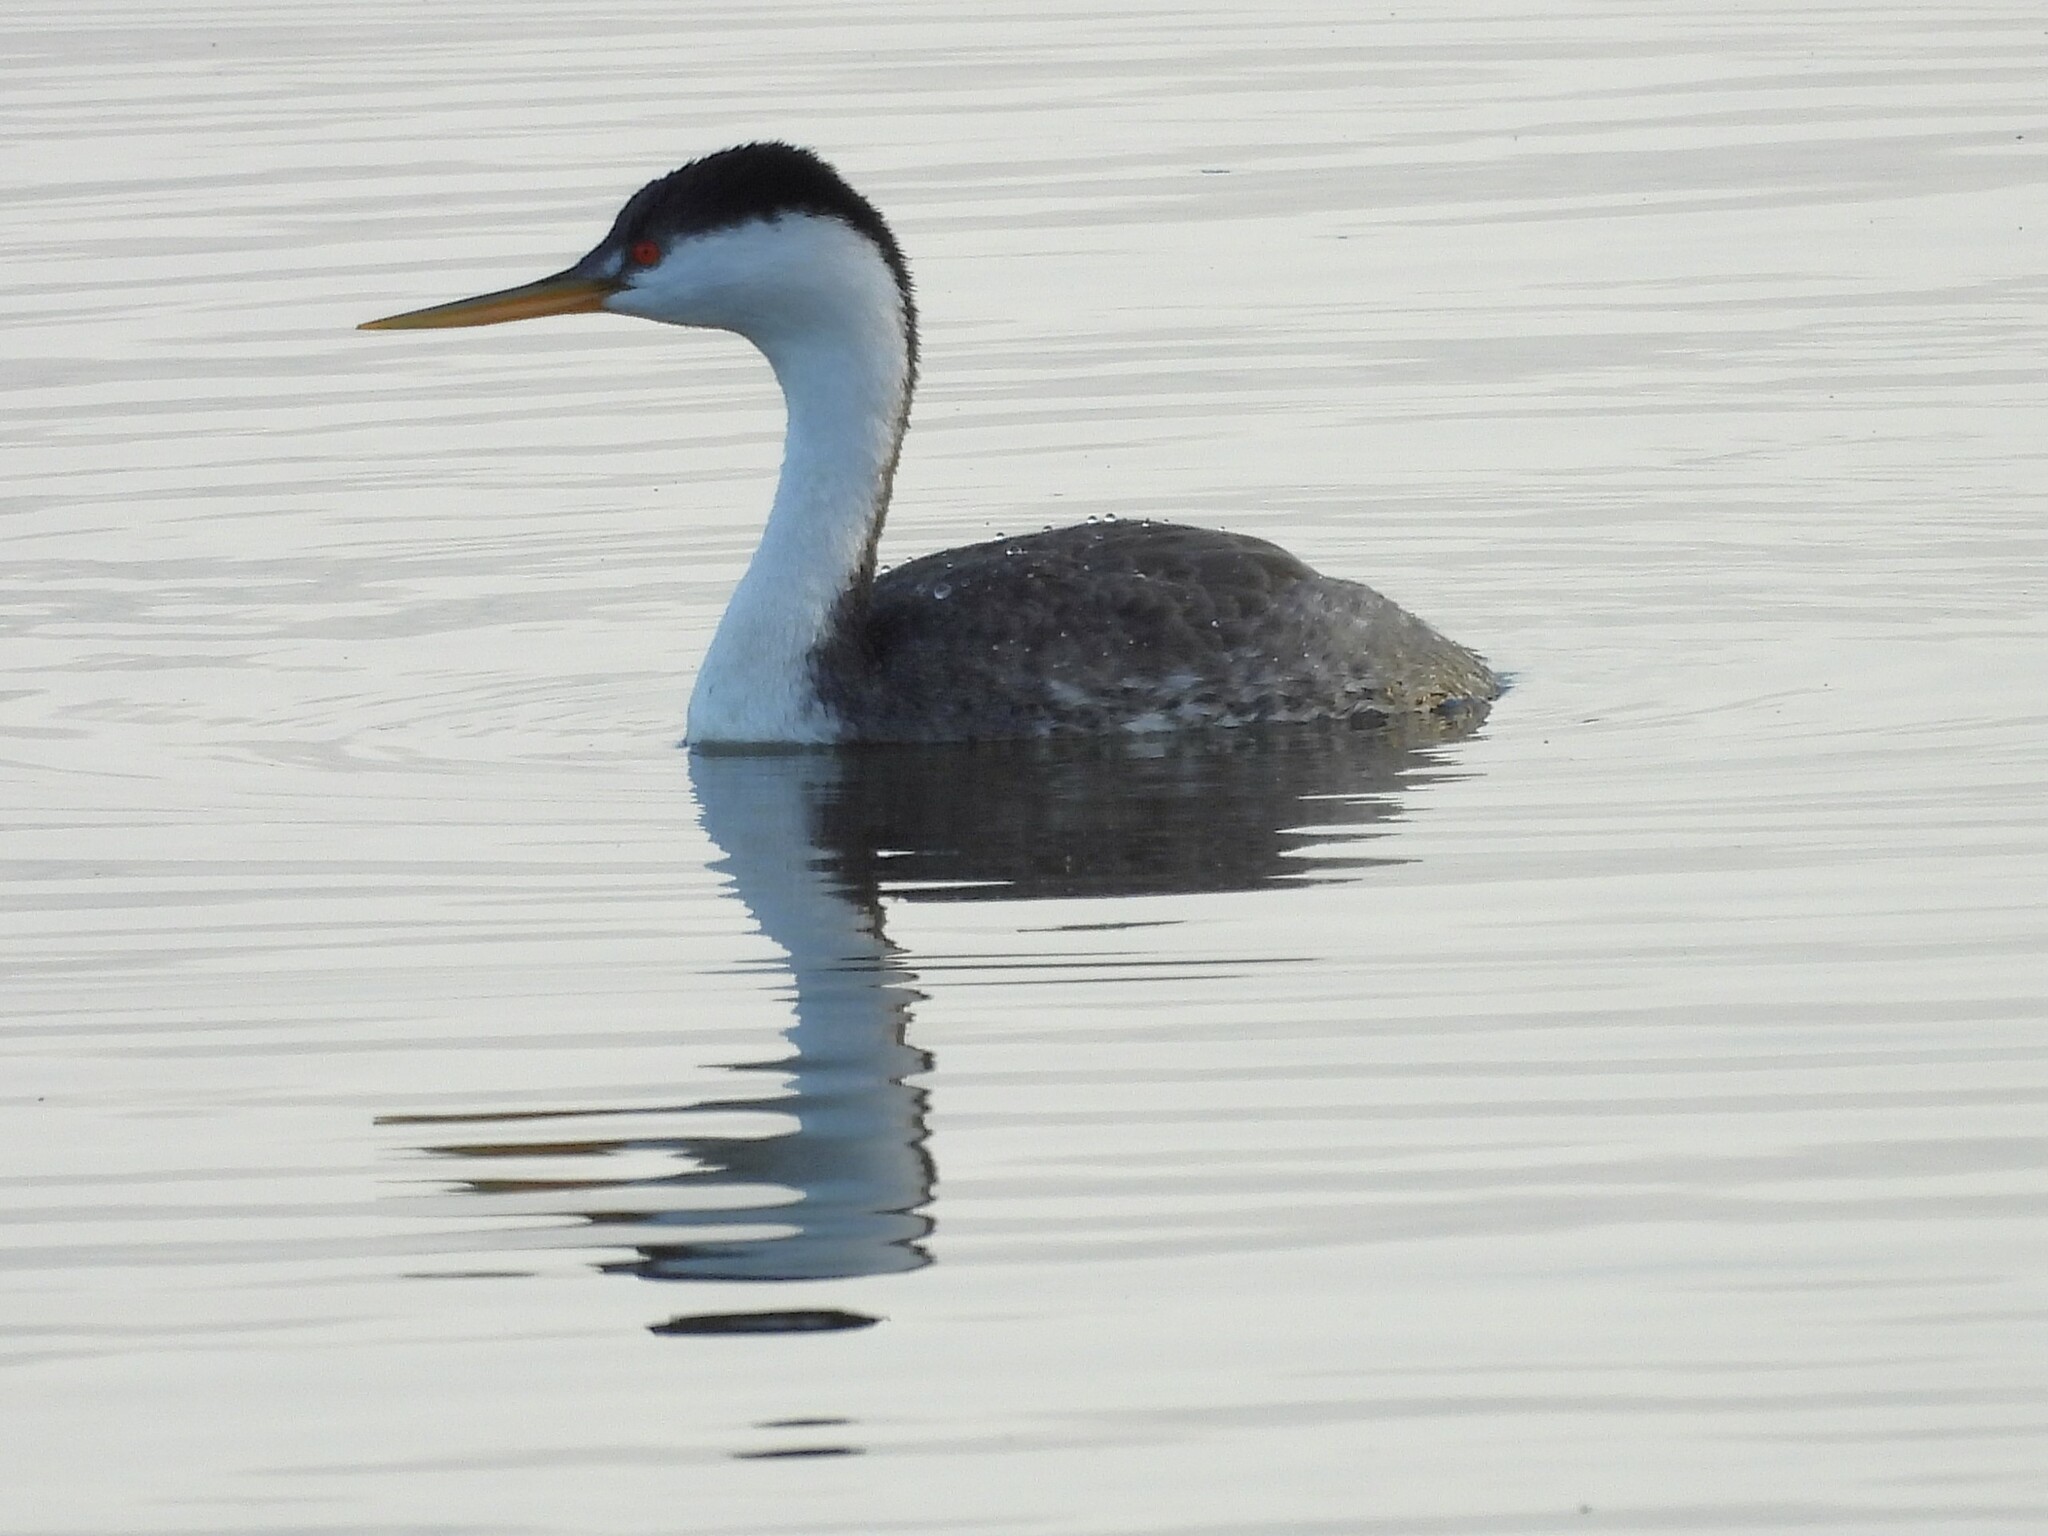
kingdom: Animalia
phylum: Chordata
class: Aves
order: Podicipediformes
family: Podicipedidae
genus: Aechmophorus
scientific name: Aechmophorus occidentalis
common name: Western grebe
